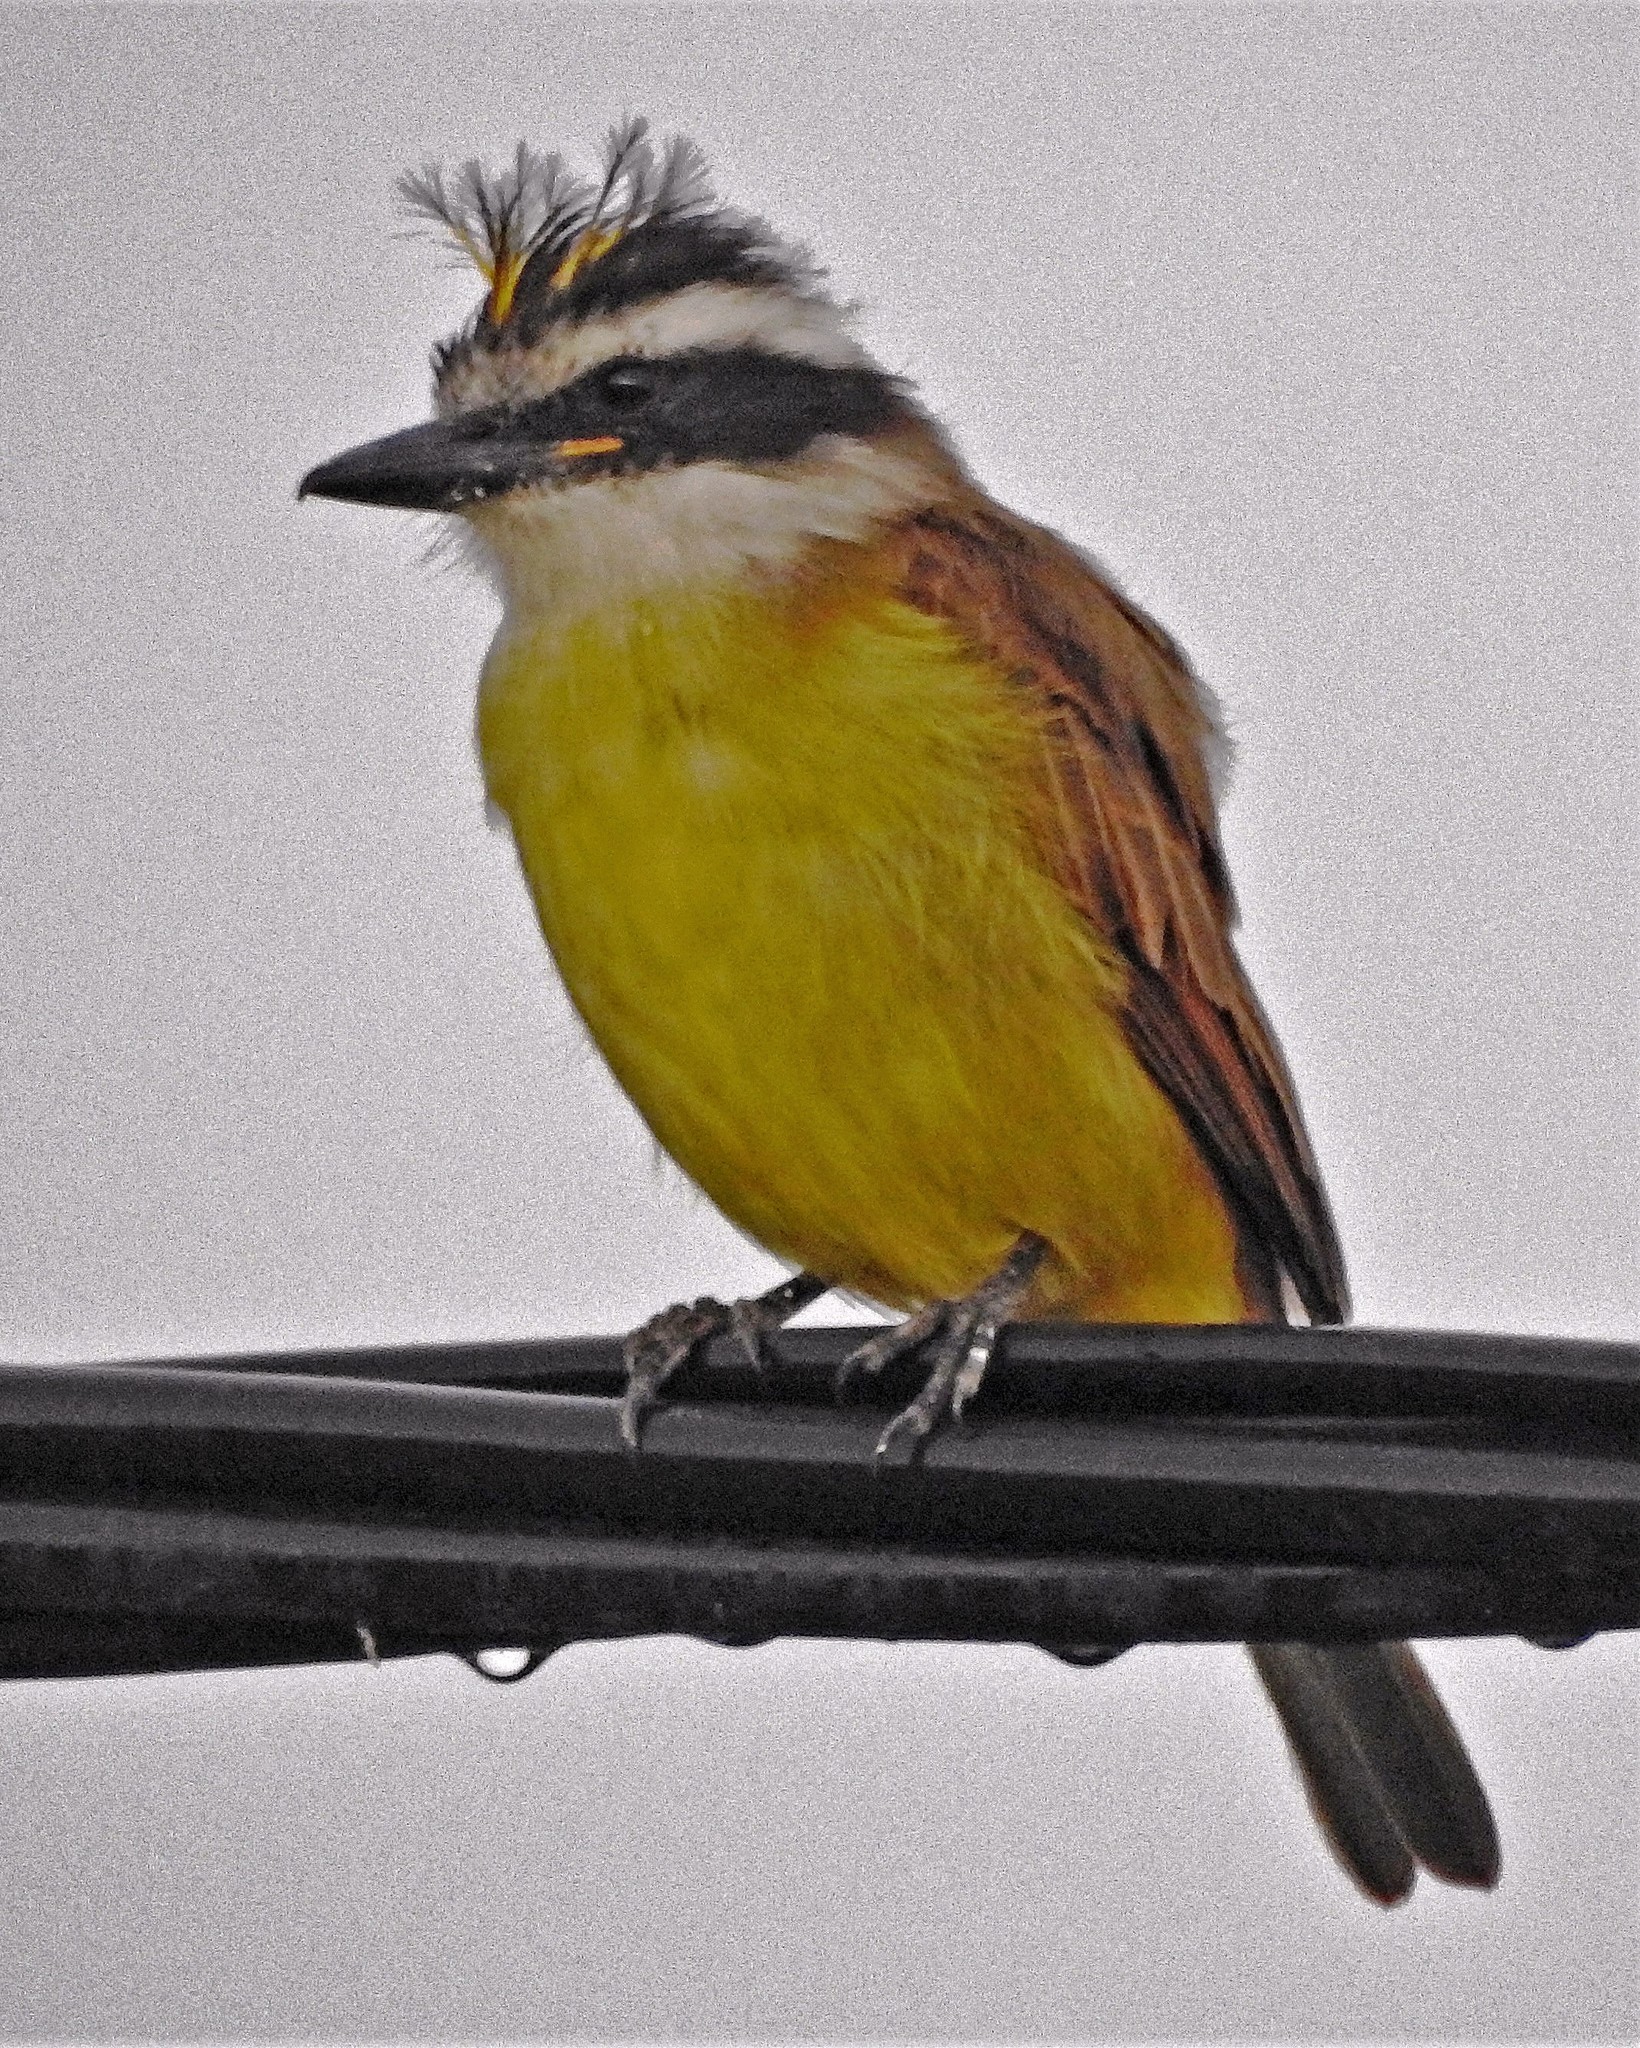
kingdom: Animalia
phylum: Chordata
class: Aves
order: Passeriformes
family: Tyrannidae
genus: Pitangus
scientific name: Pitangus sulphuratus
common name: Great kiskadee
